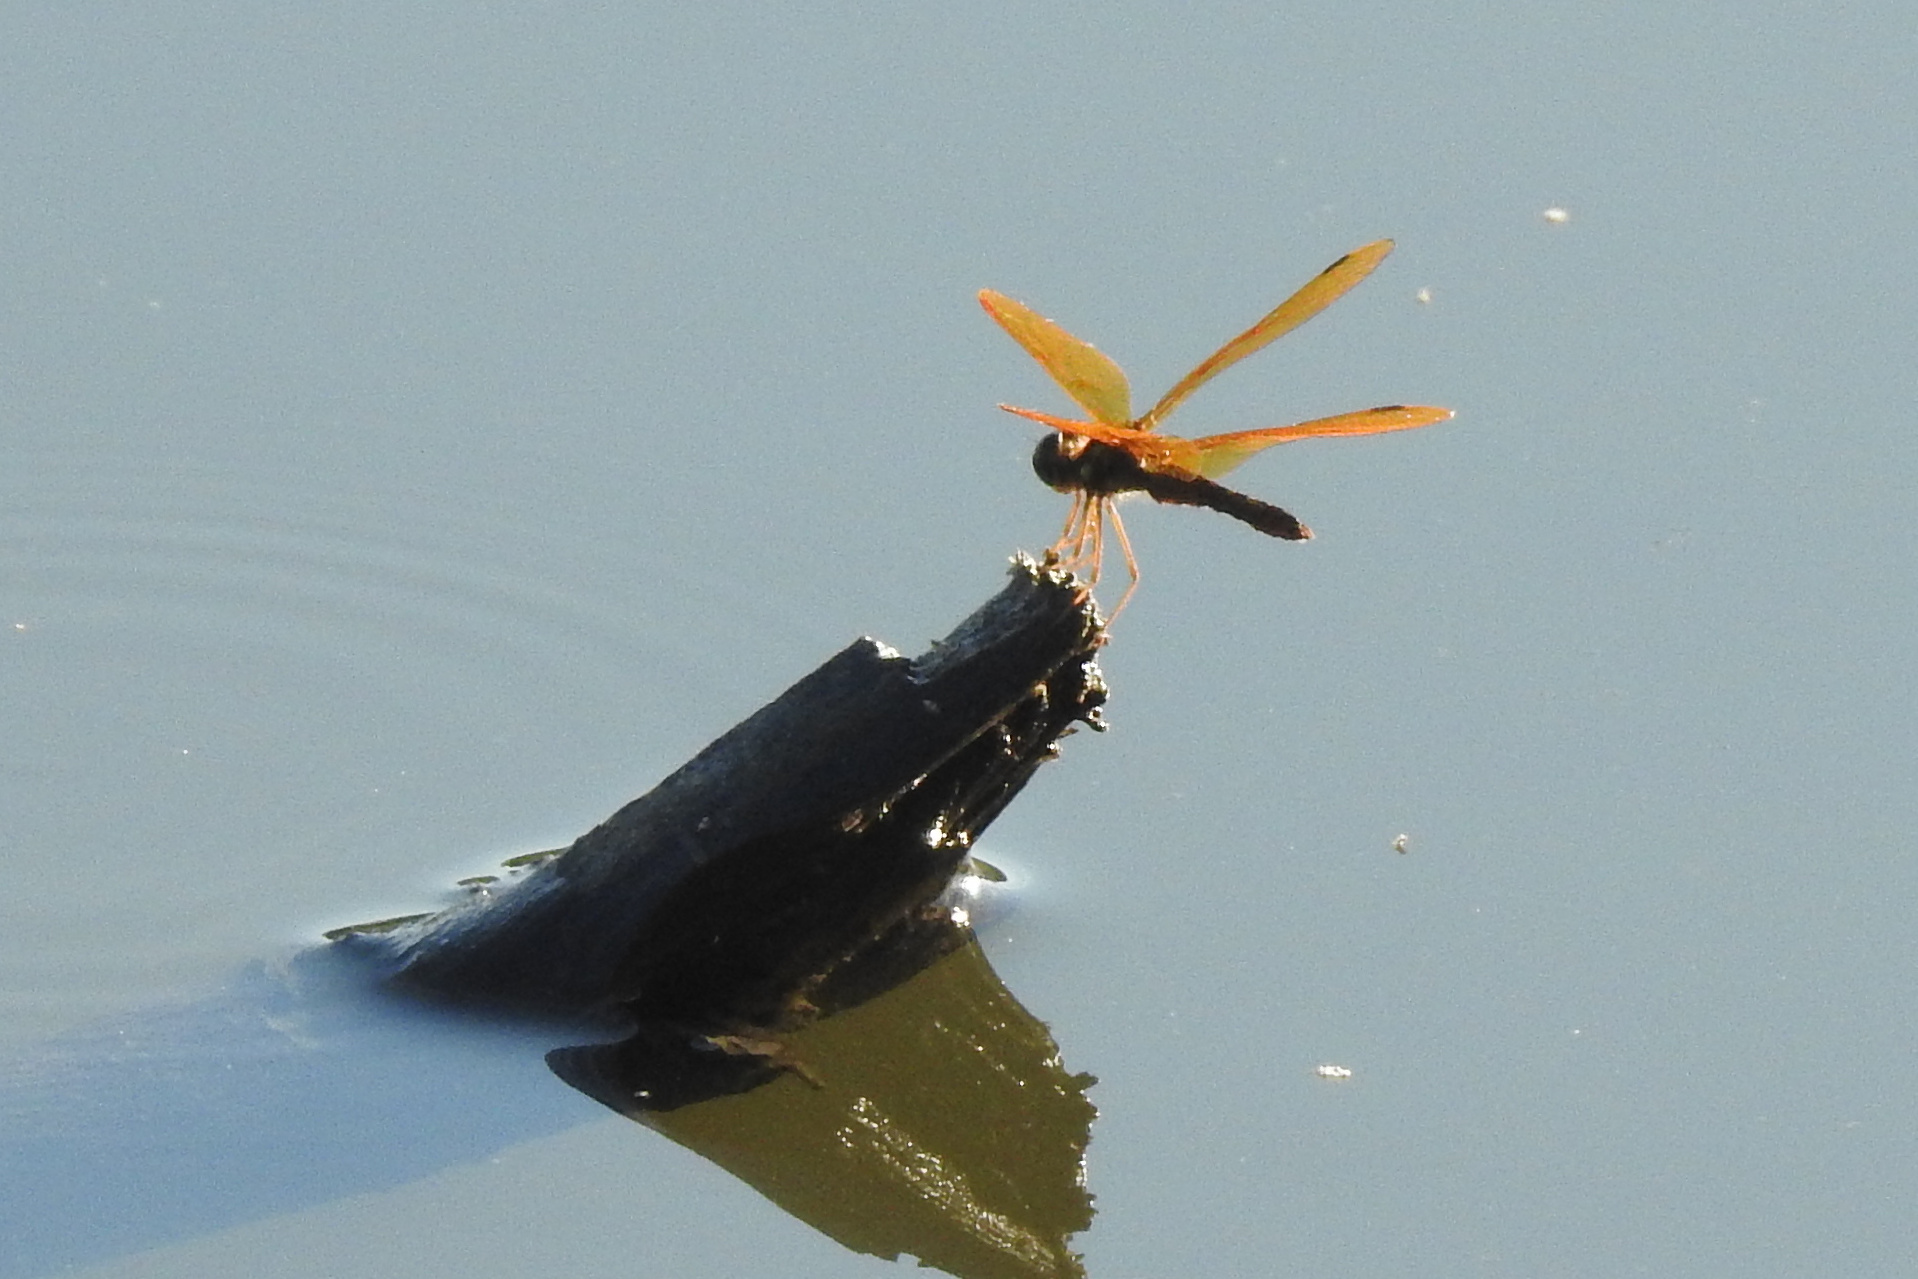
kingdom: Animalia
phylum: Arthropoda
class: Insecta
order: Odonata
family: Libellulidae
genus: Perithemis
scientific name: Perithemis tenera
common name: Eastern amberwing
